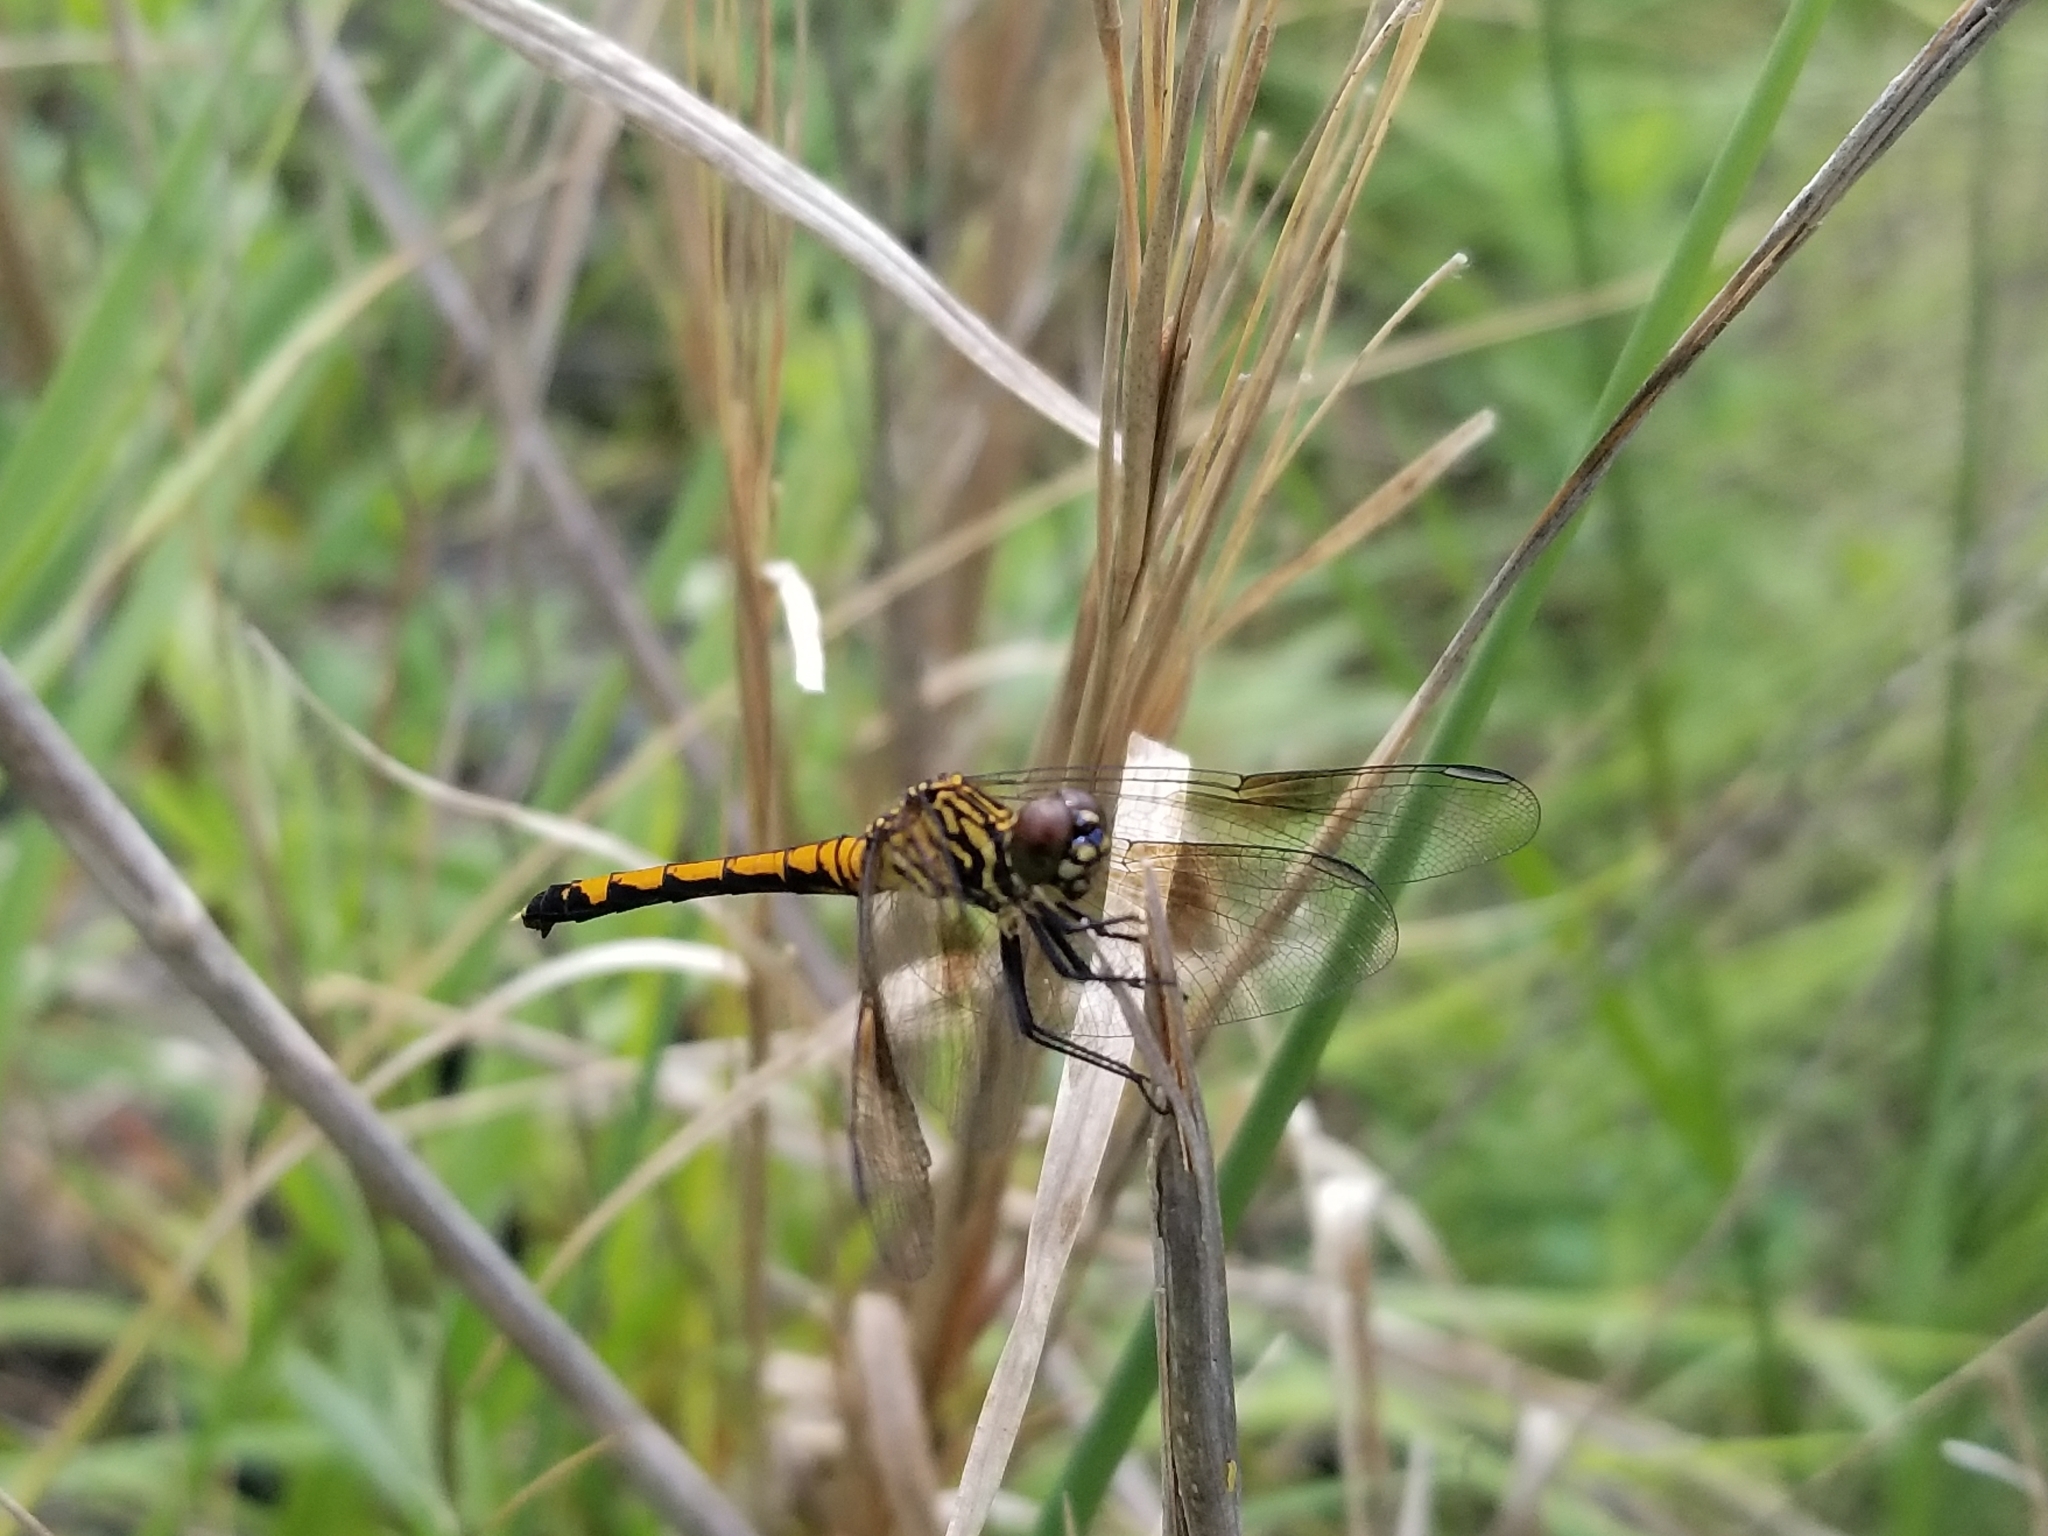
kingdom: Animalia
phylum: Arthropoda
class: Insecta
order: Odonata
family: Libellulidae
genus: Erythrodiplax
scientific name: Erythrodiplax berenice
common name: Seaside dragonlet
